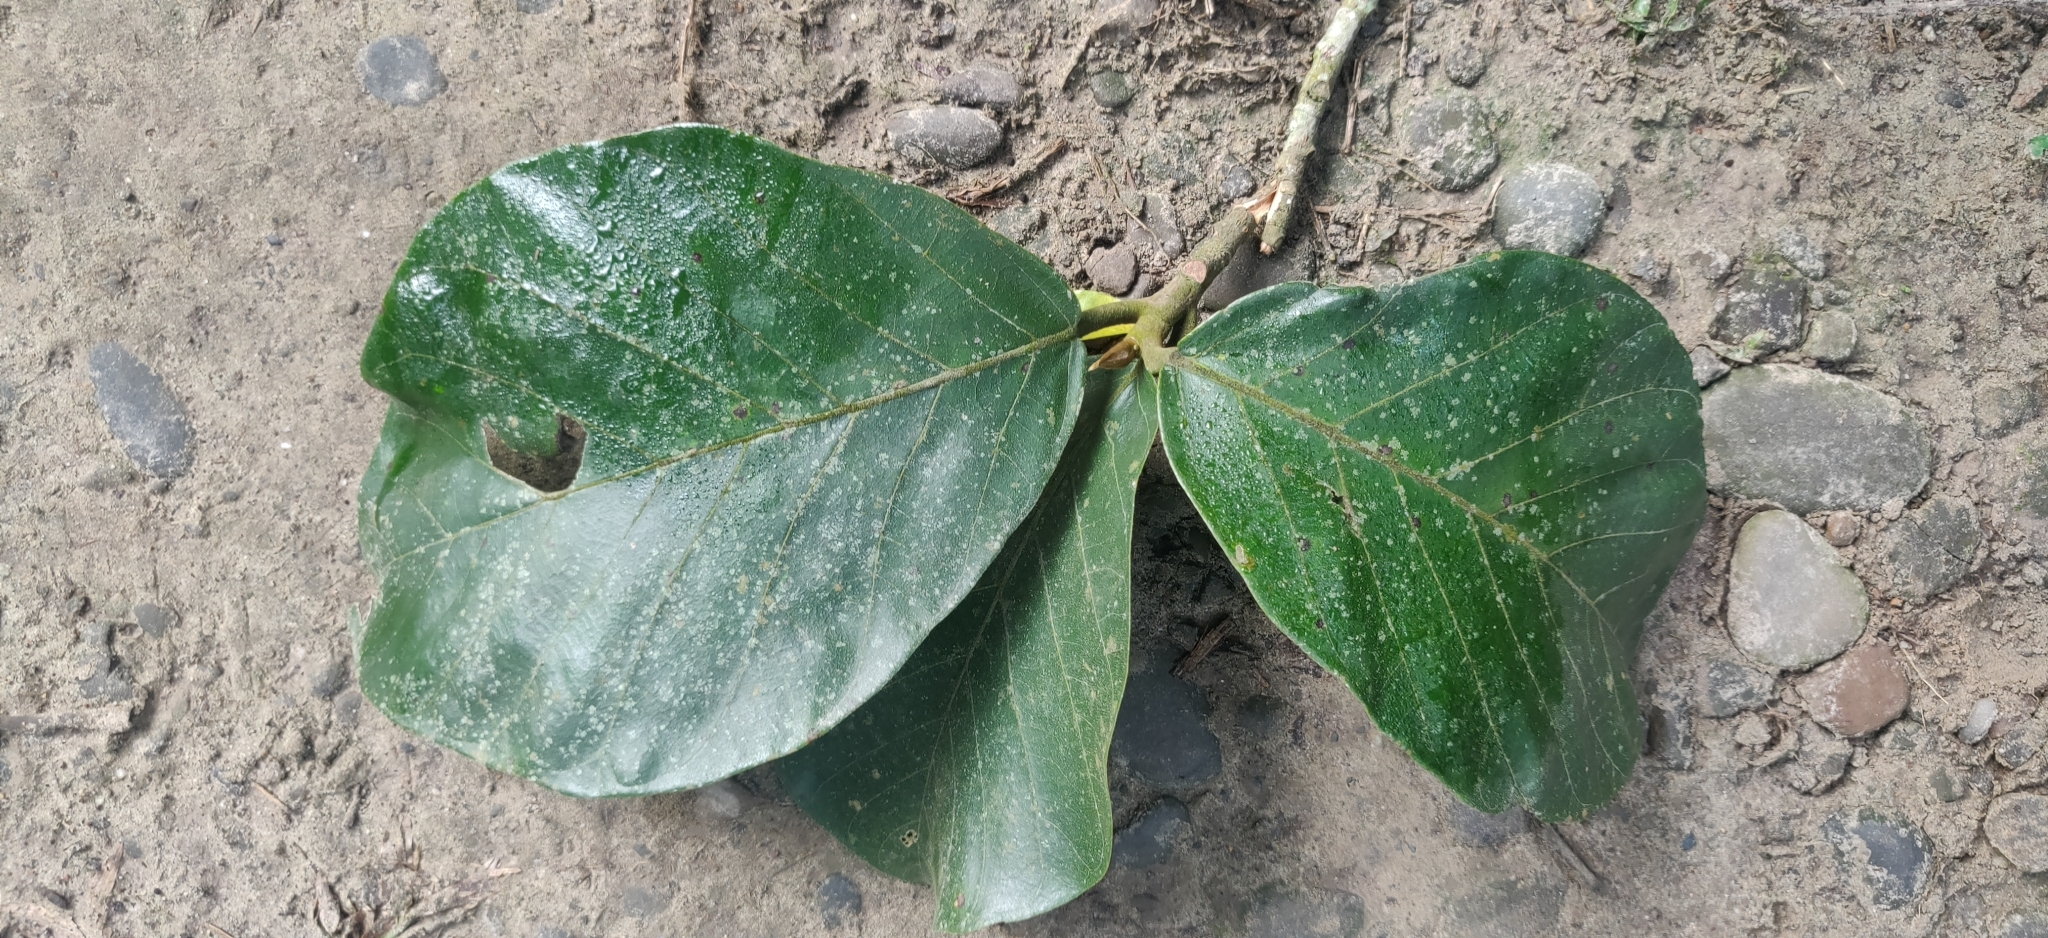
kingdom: Plantae
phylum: Tracheophyta
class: Magnoliopsida
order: Rosales
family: Moraceae
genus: Artocarpus
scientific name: Artocarpus chama
